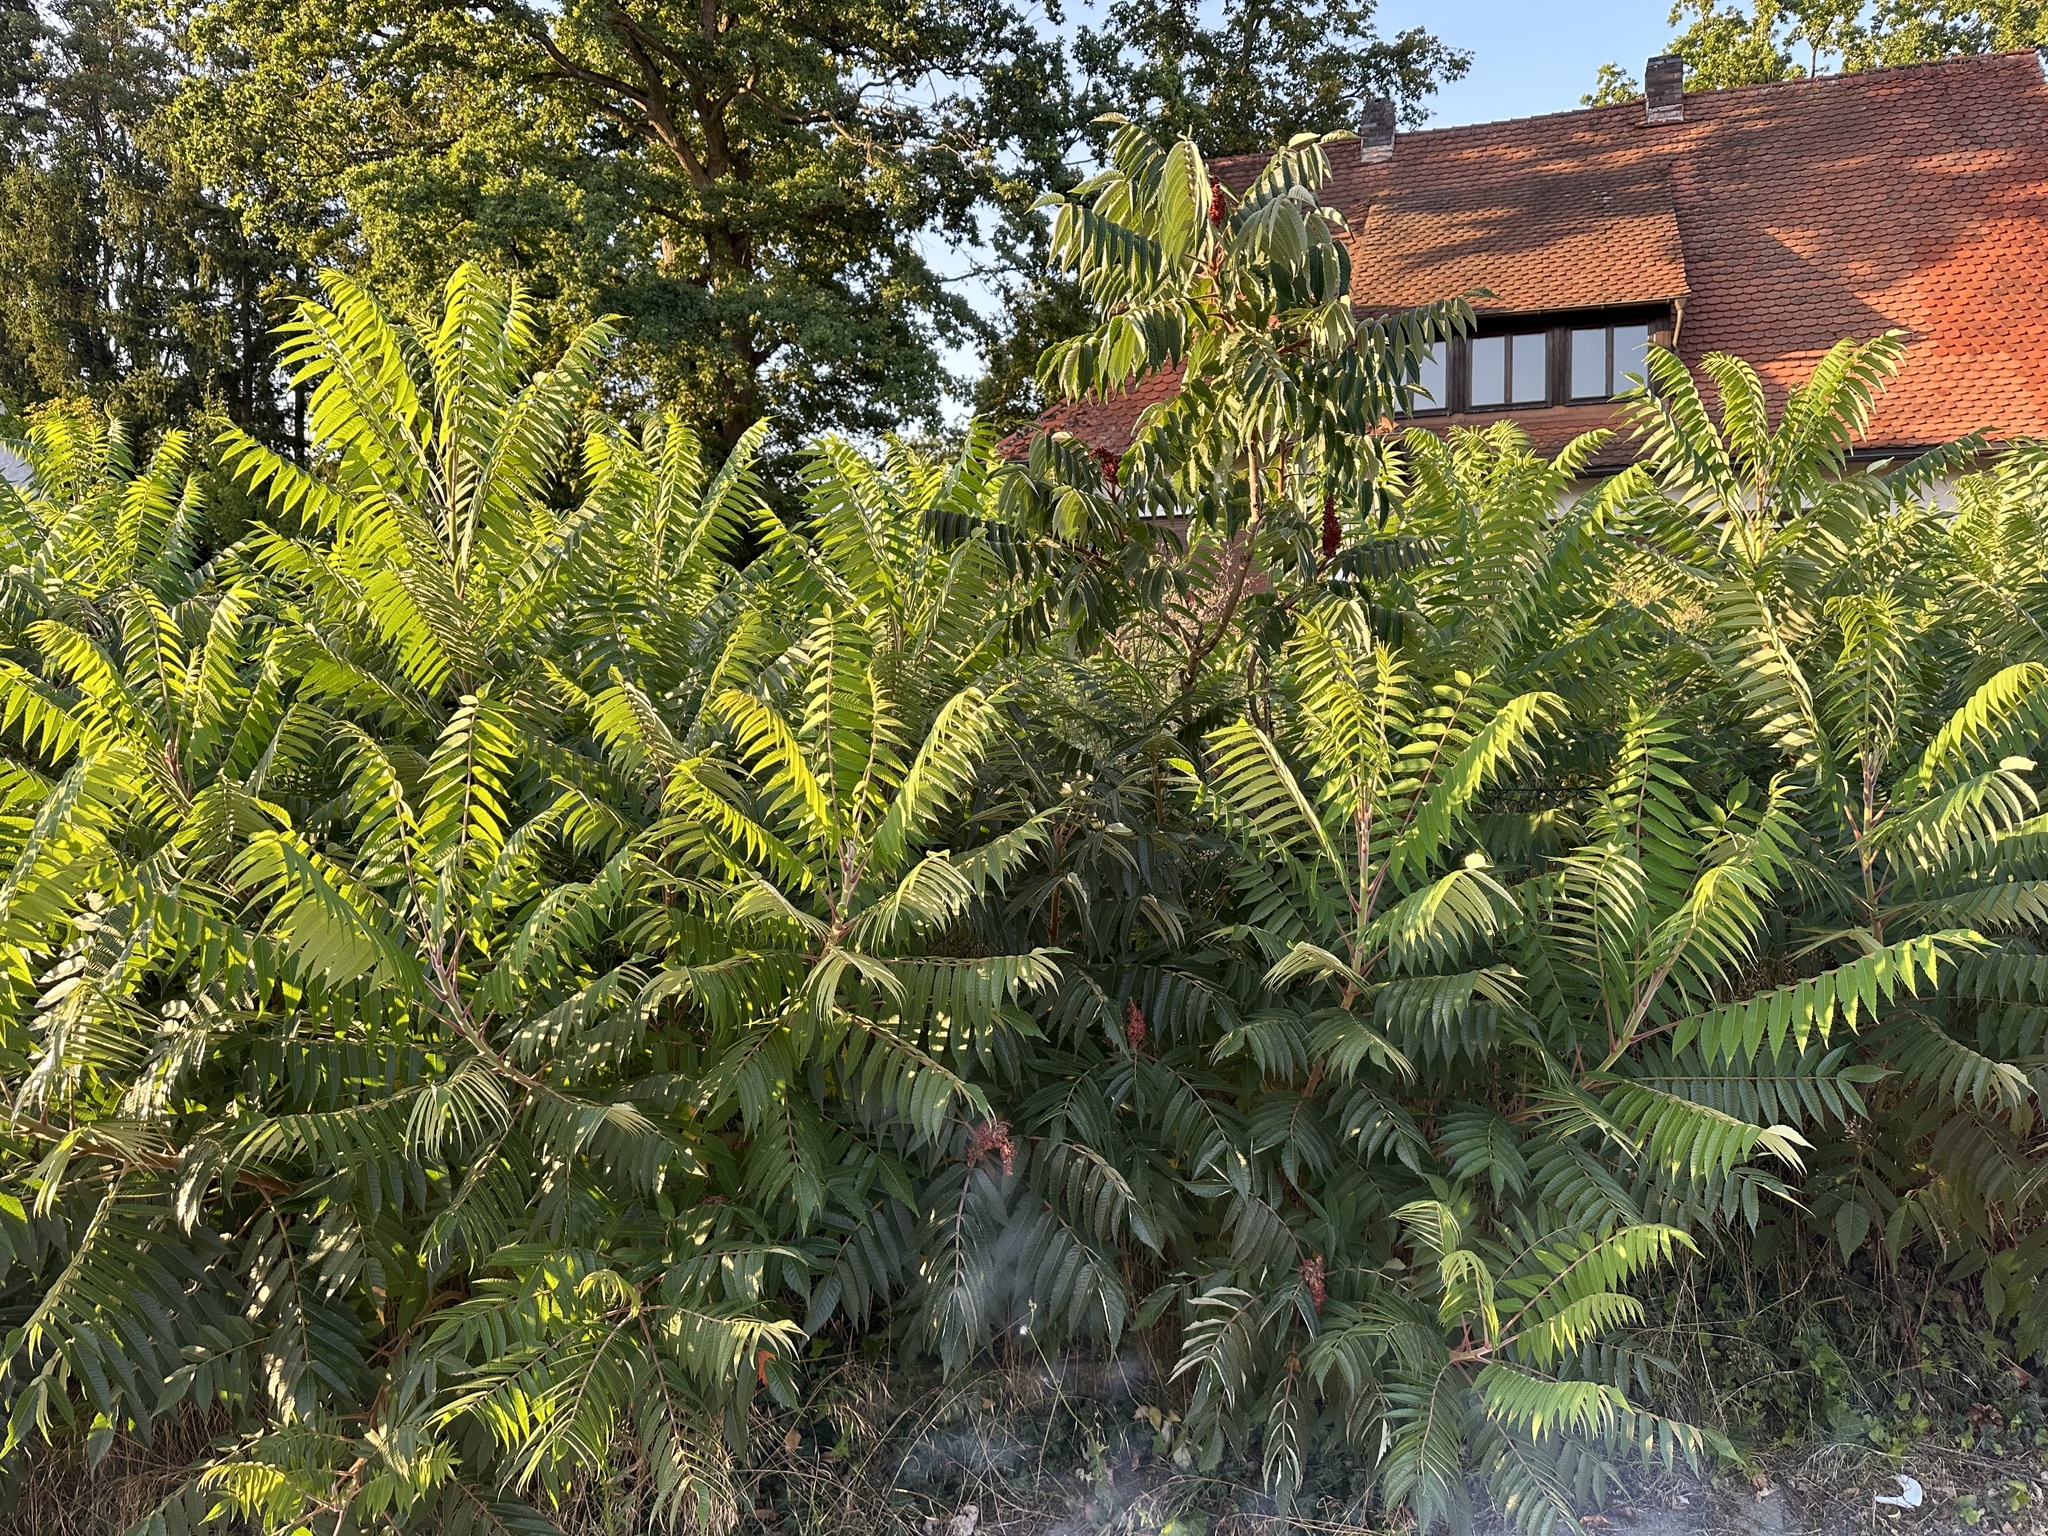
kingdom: Plantae
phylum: Tracheophyta
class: Magnoliopsida
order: Sapindales
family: Anacardiaceae
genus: Rhus
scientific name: Rhus typhina
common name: Staghorn sumac
